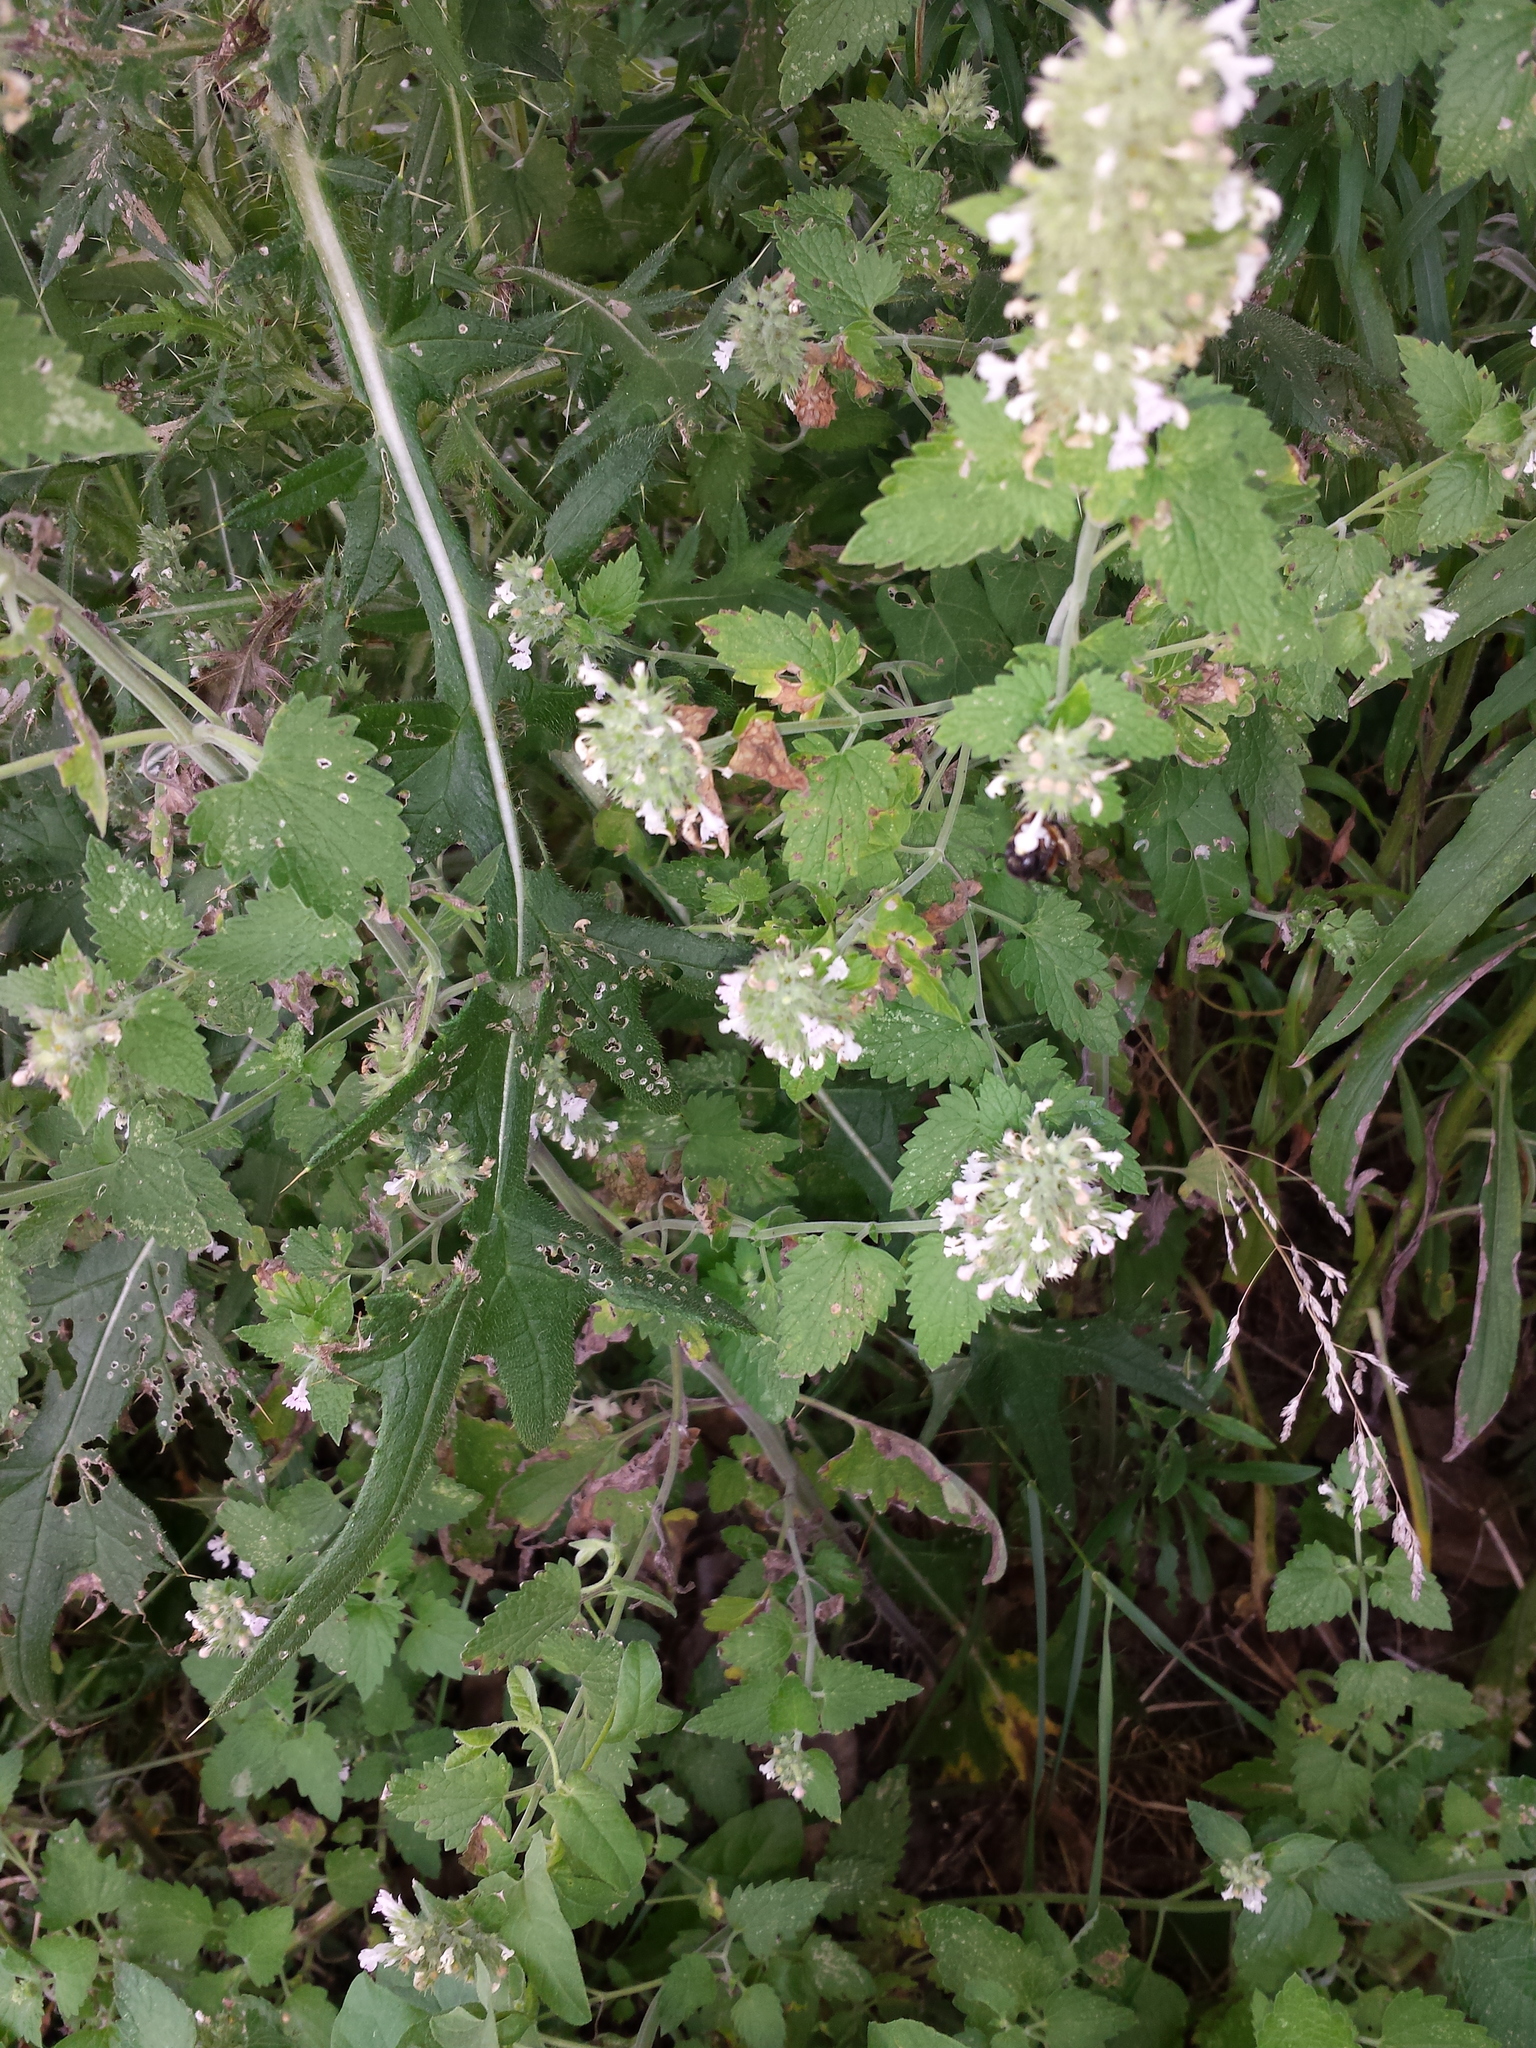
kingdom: Plantae
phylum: Tracheophyta
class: Magnoliopsida
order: Lamiales
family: Lamiaceae
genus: Nepeta
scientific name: Nepeta cataria
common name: Catnip
